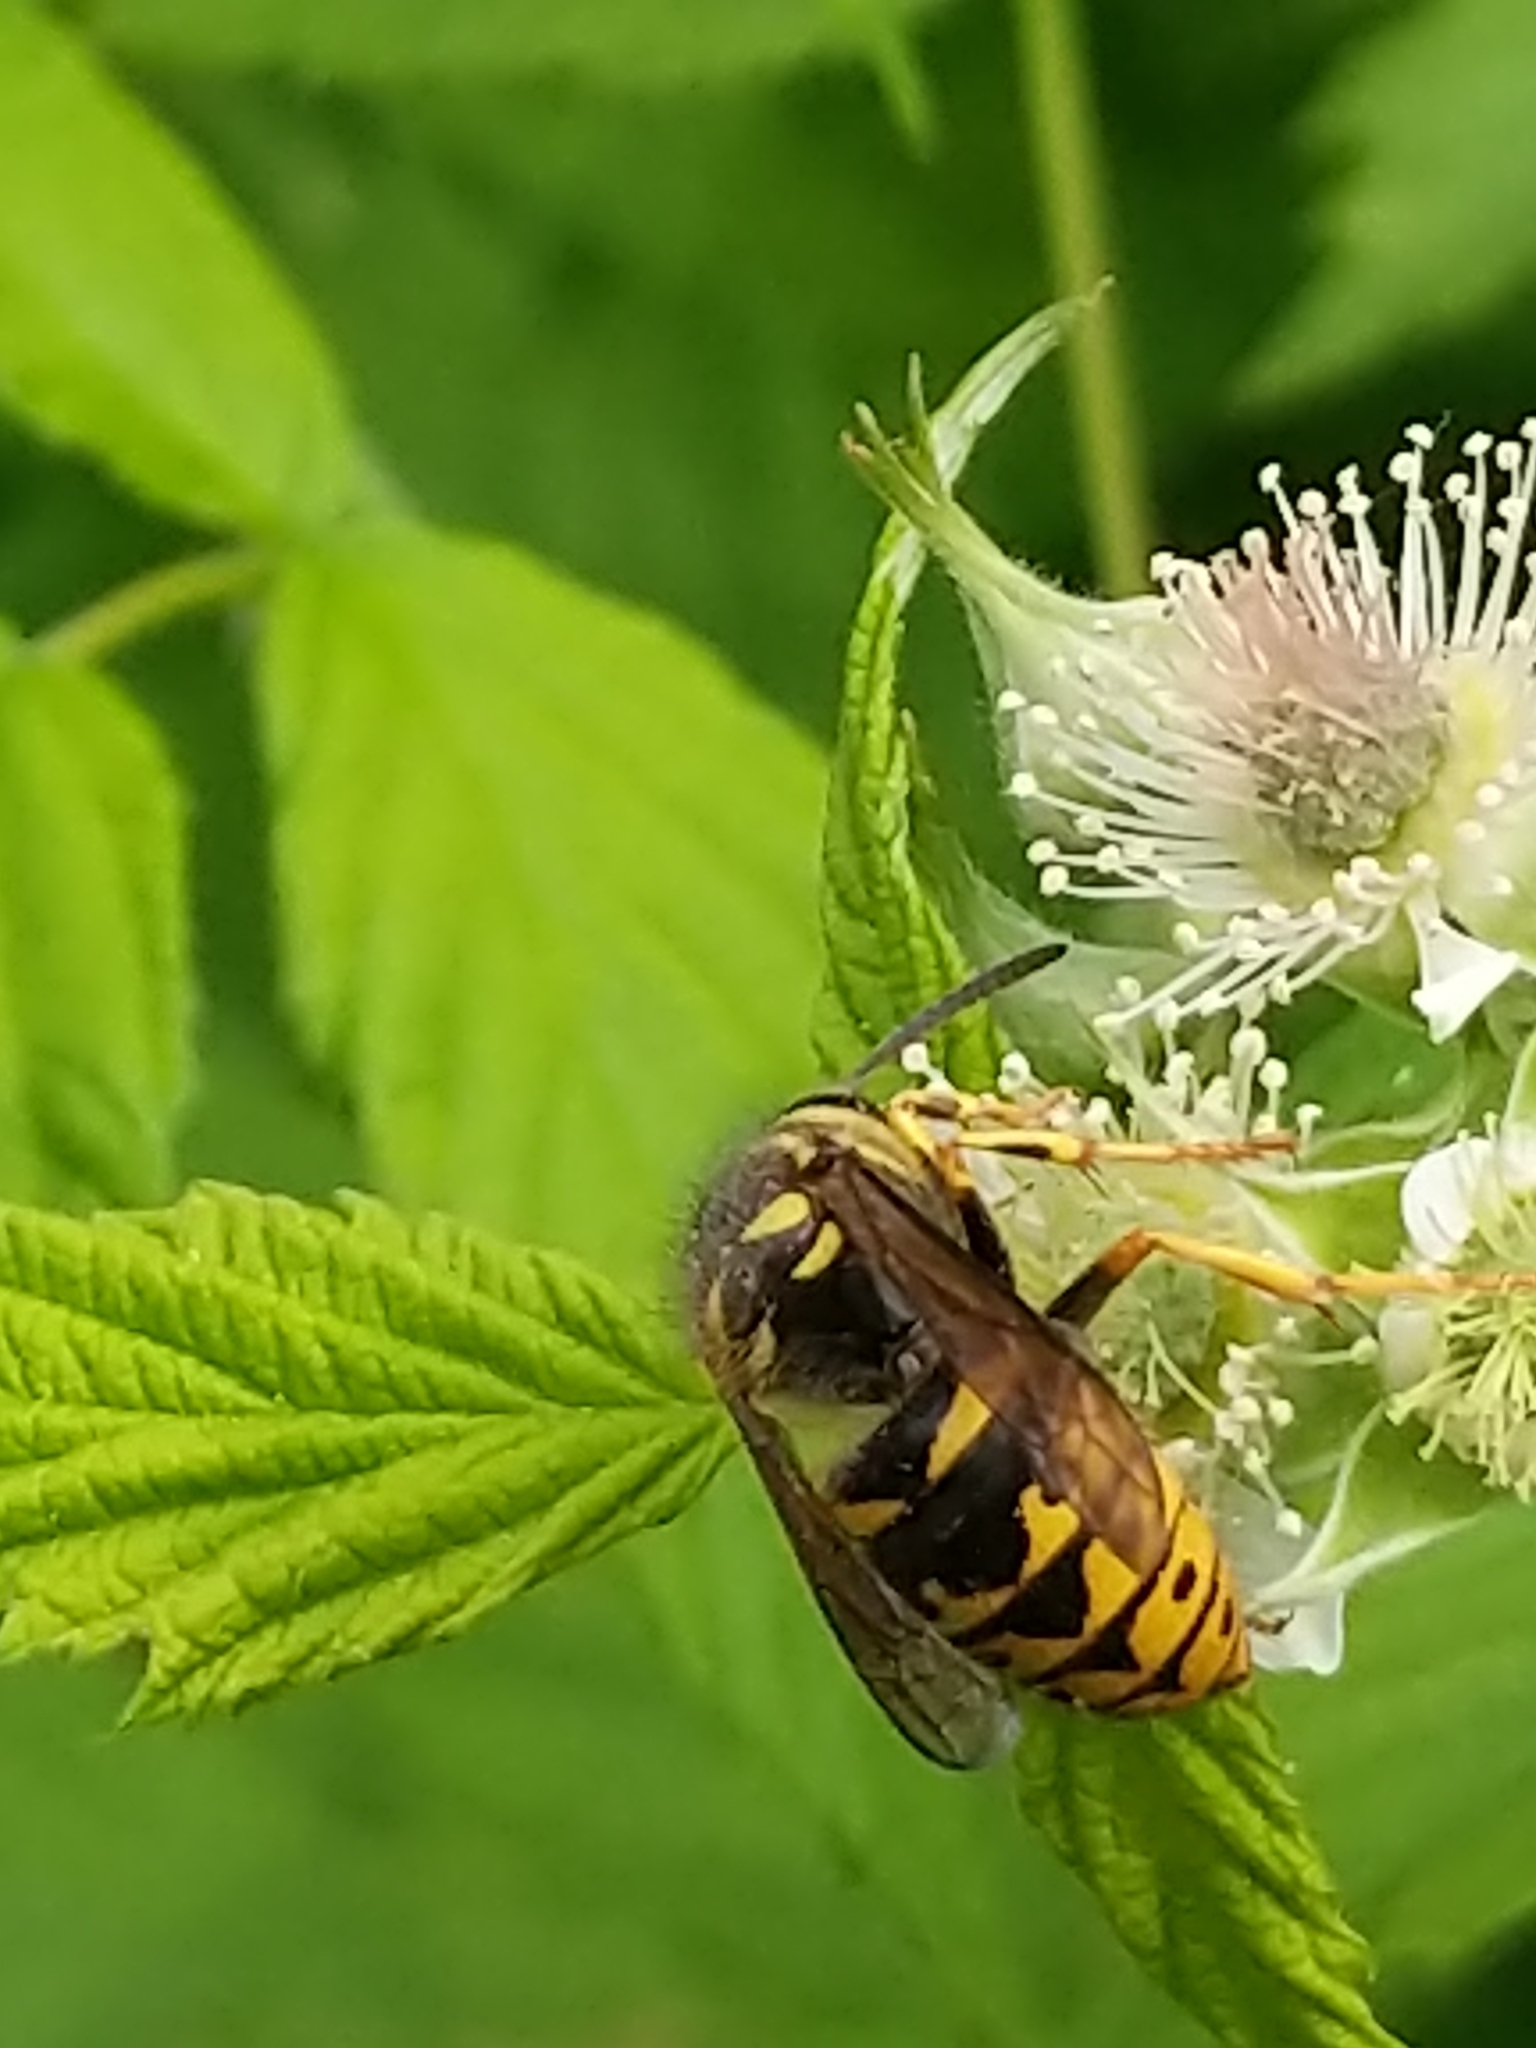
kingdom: Animalia
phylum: Arthropoda
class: Insecta
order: Hymenoptera
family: Vespidae
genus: Dolichovespula
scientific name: Dolichovespula arenaria
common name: Aerial yellowjacket
